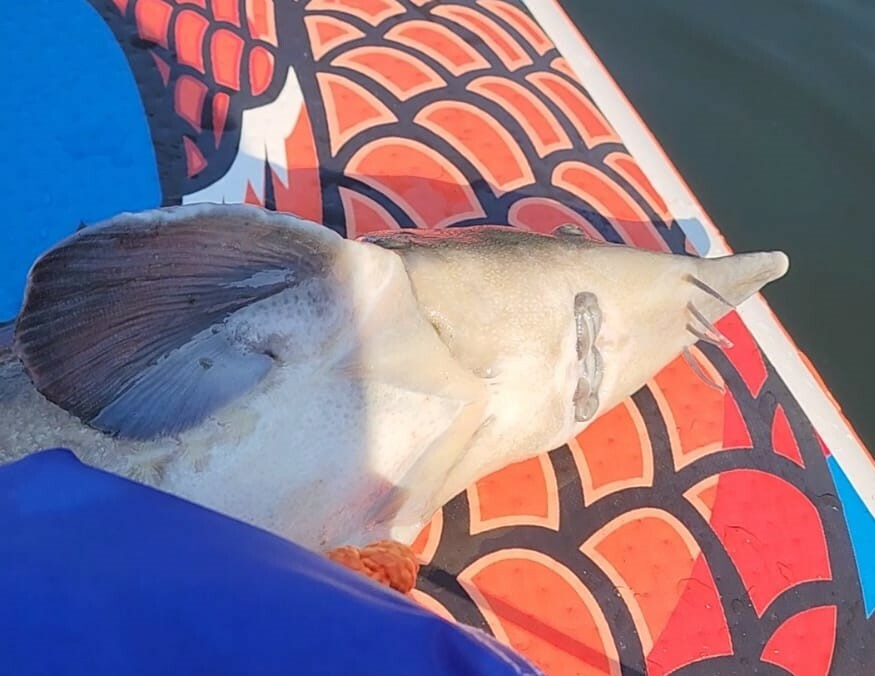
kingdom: Animalia
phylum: Chordata
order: Acipenseriformes
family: Acipenseridae
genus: Acipenser
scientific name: Acipenser ruthenus
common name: Sterlet
